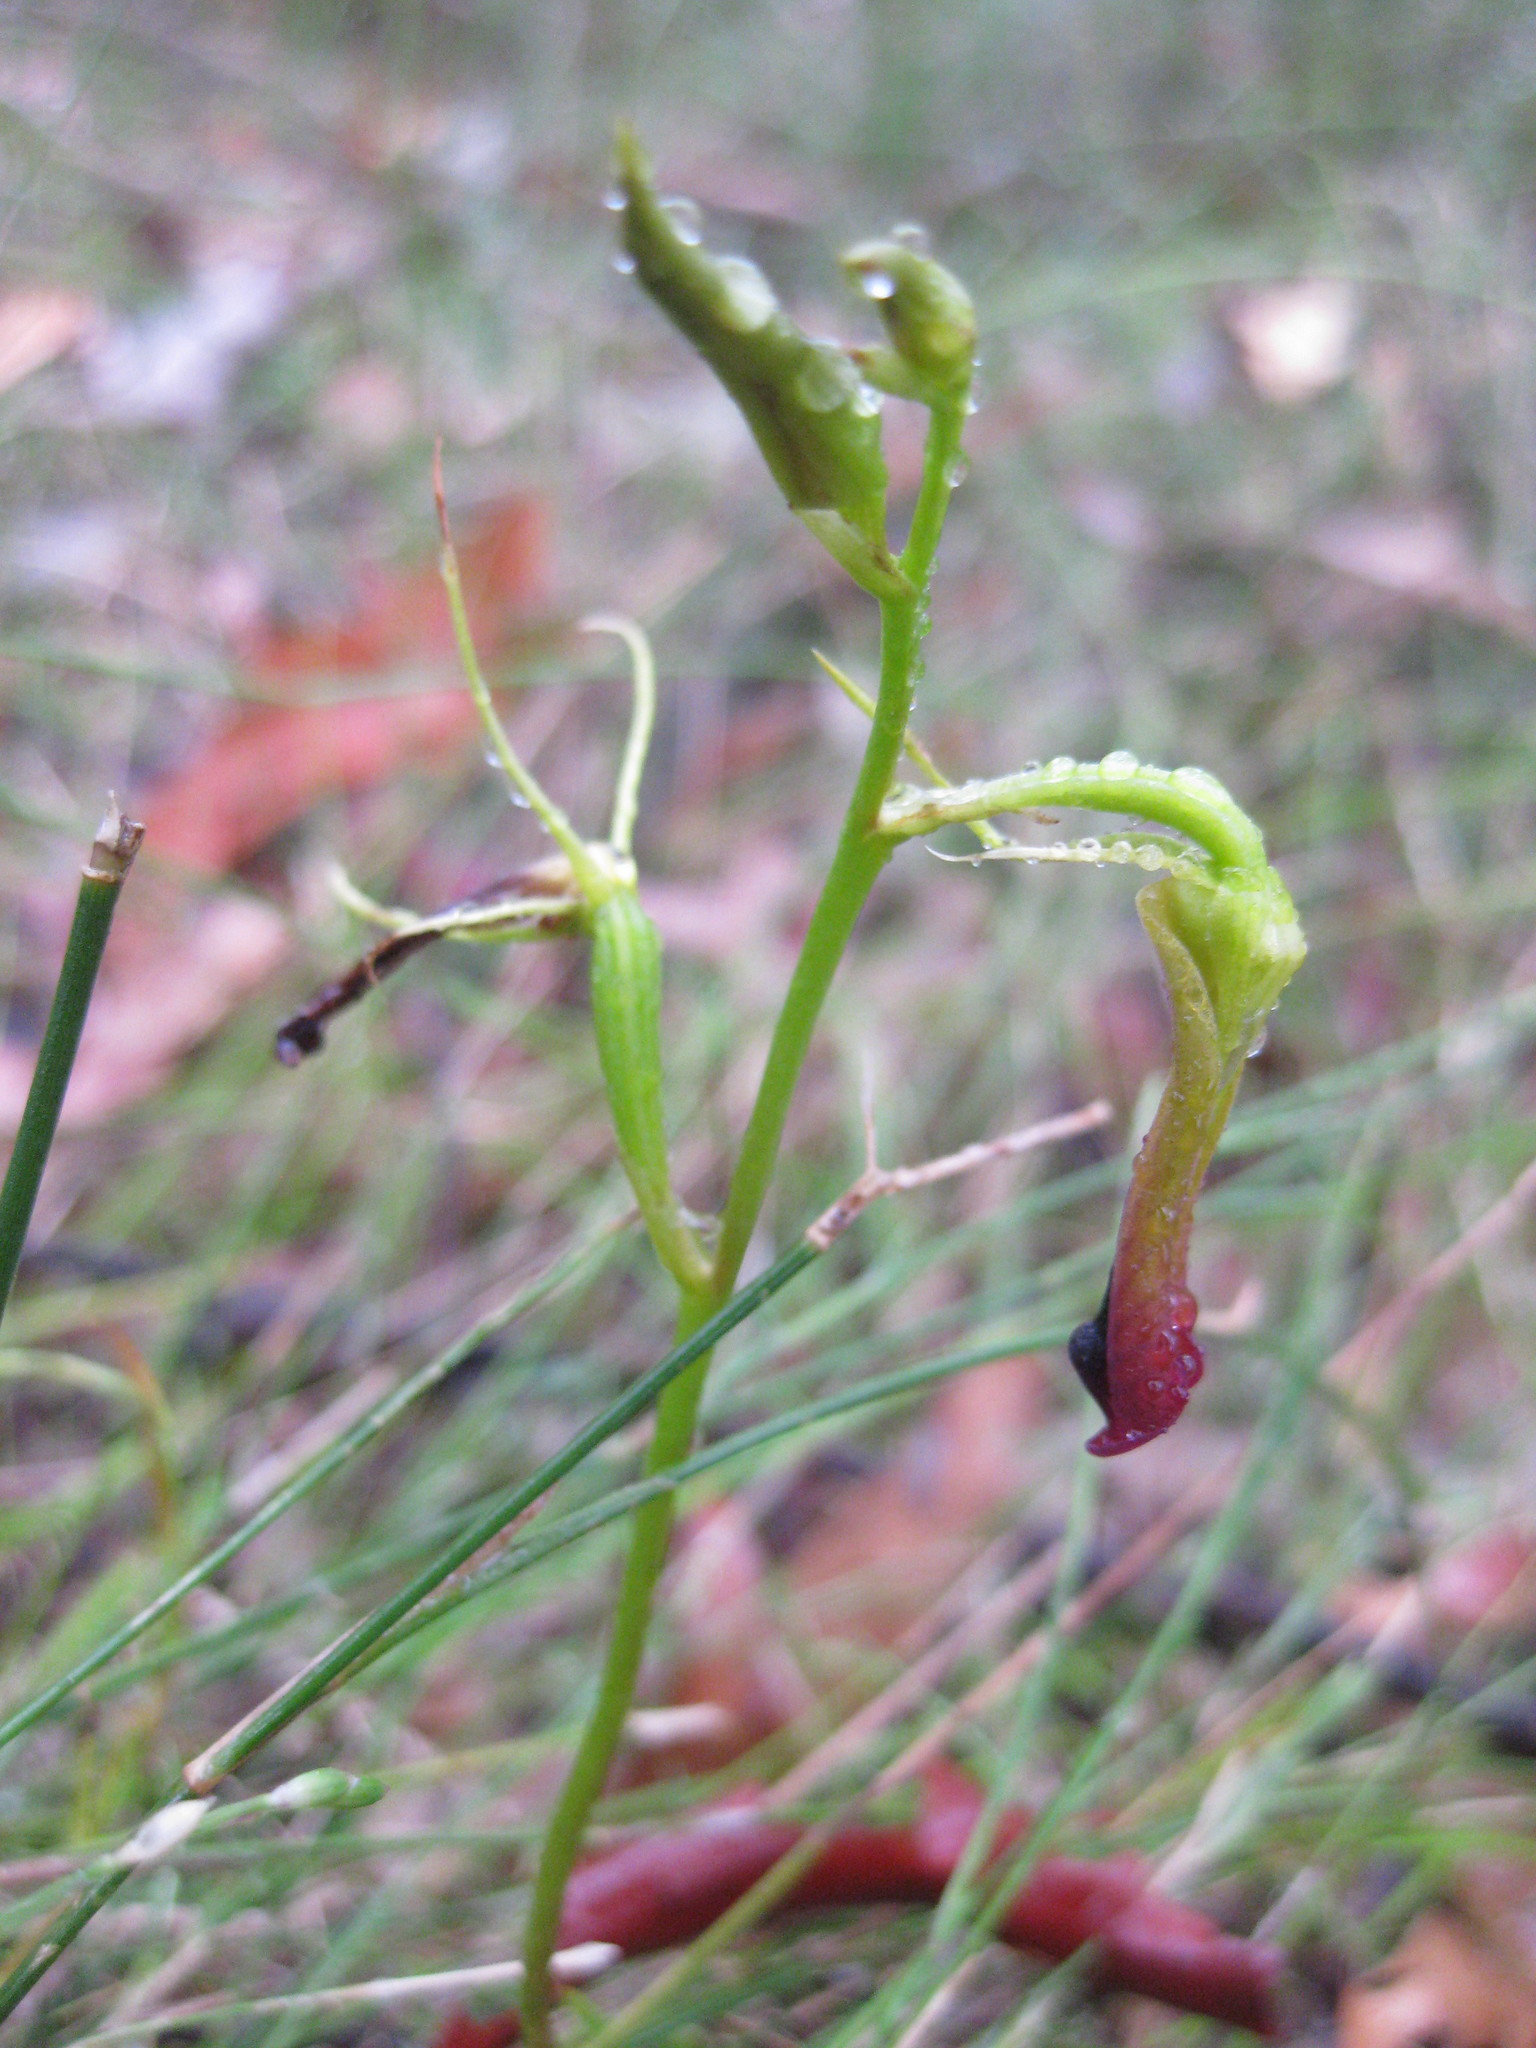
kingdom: Plantae
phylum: Tracheophyta
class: Liliopsida
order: Asparagales
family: Orchidaceae
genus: Cryptostylis
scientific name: Cryptostylis subulata
